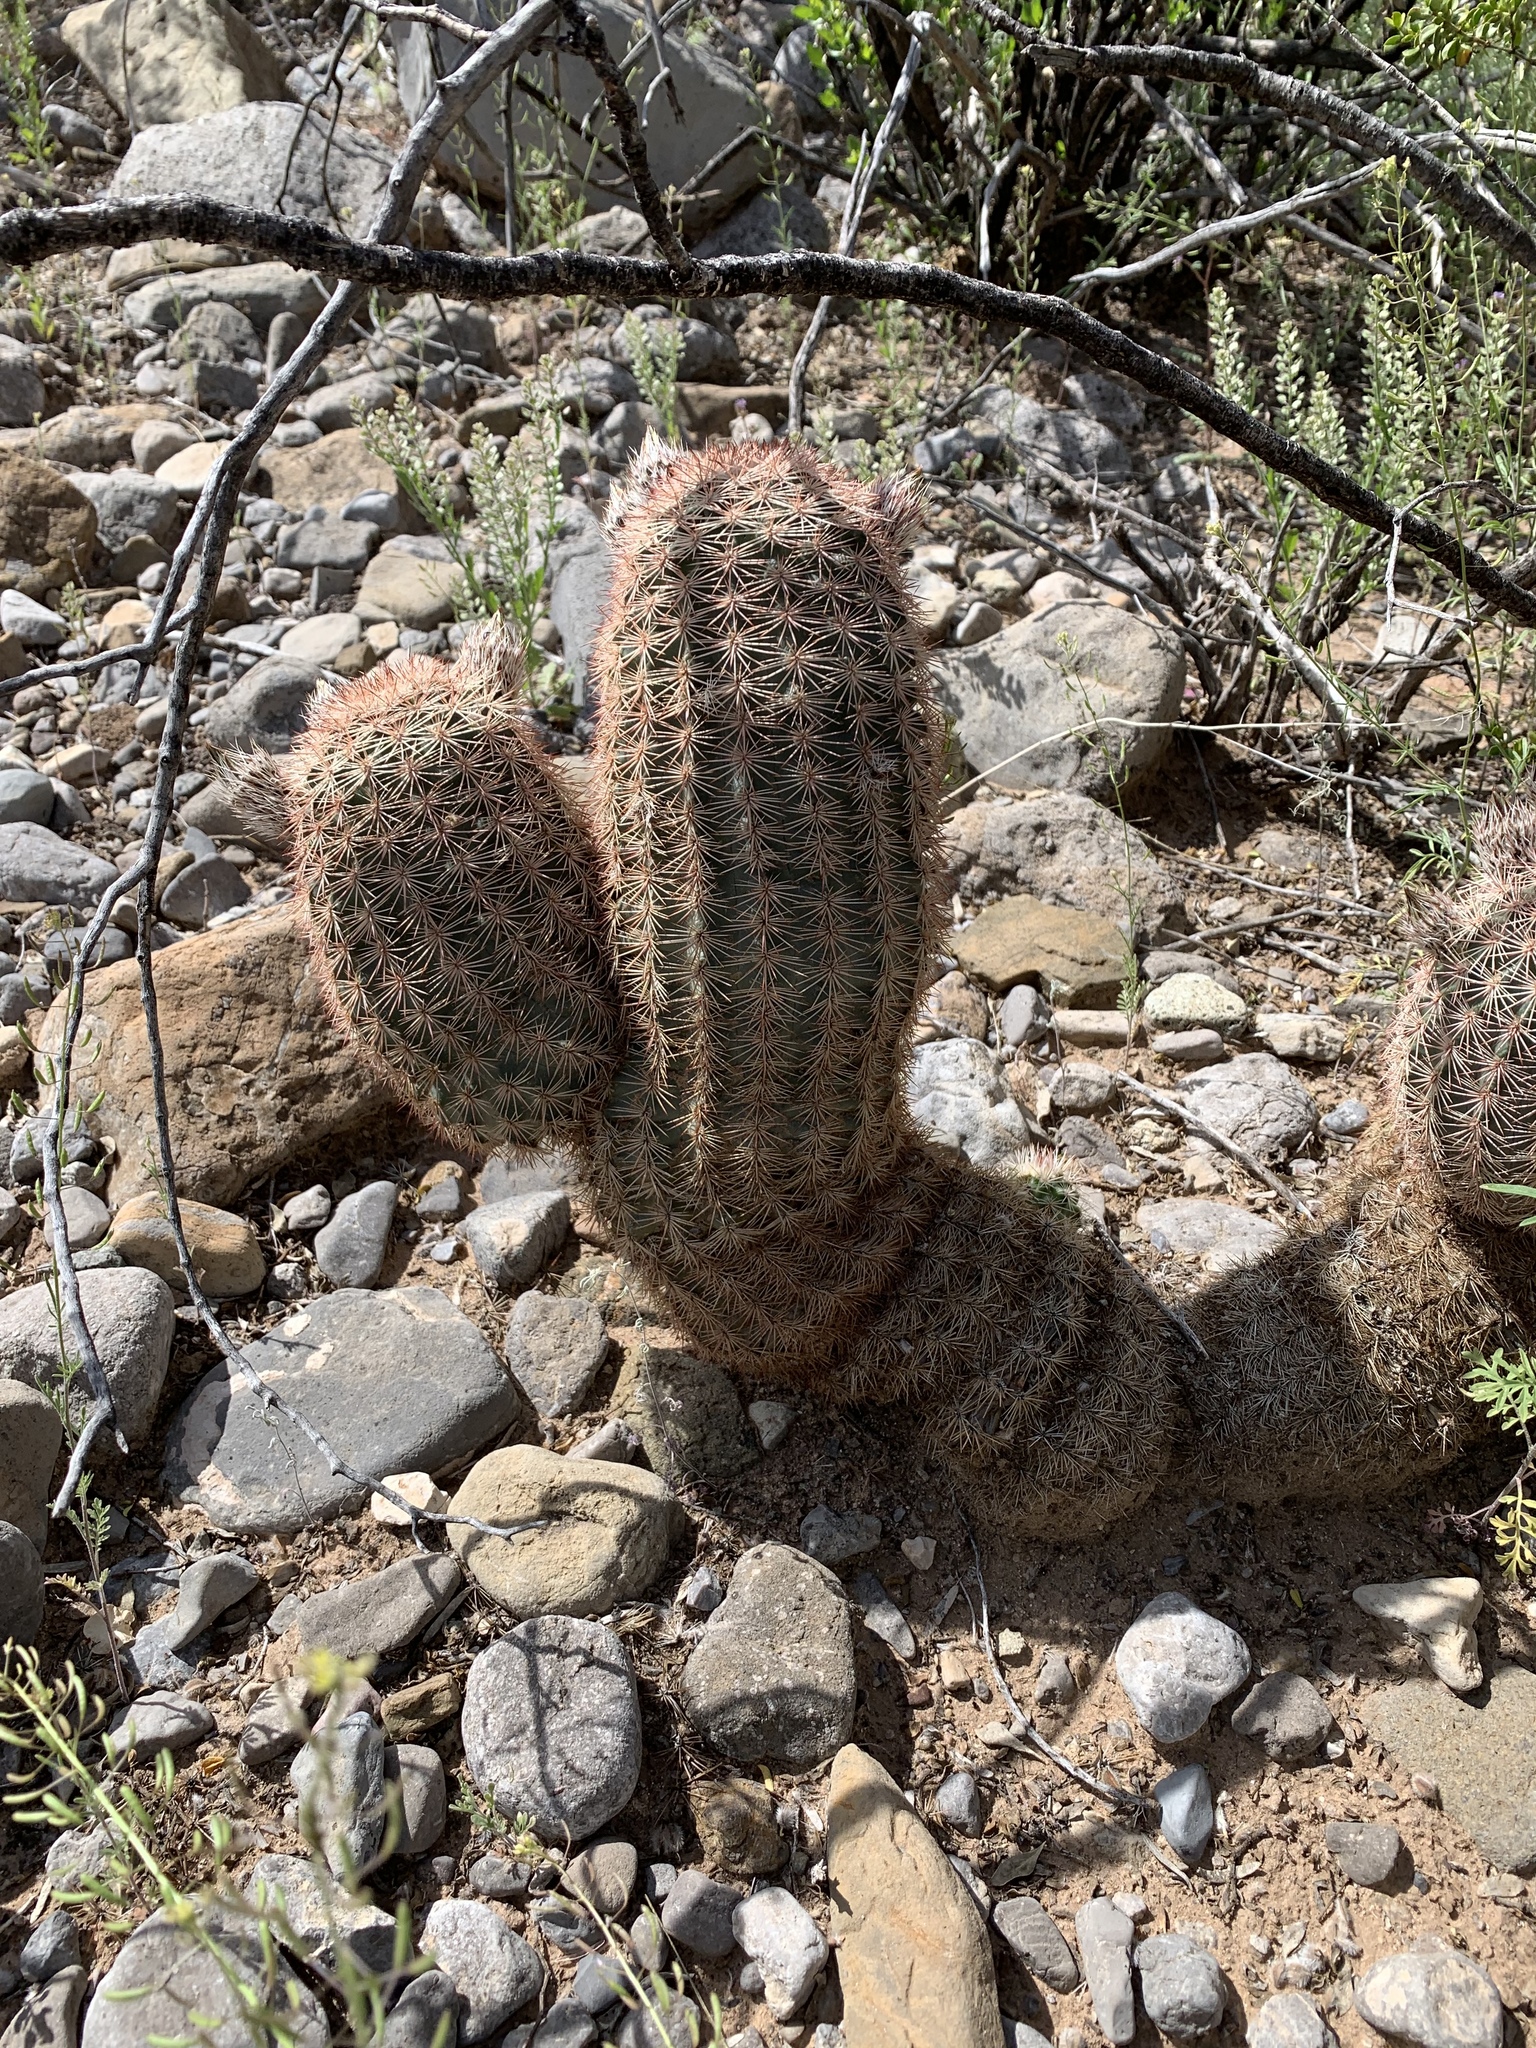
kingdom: Plantae
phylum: Tracheophyta
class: Magnoliopsida
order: Caryophyllales
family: Cactaceae
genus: Echinocereus
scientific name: Echinocereus dasyacanthus
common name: Spiny hedgehog cactus
